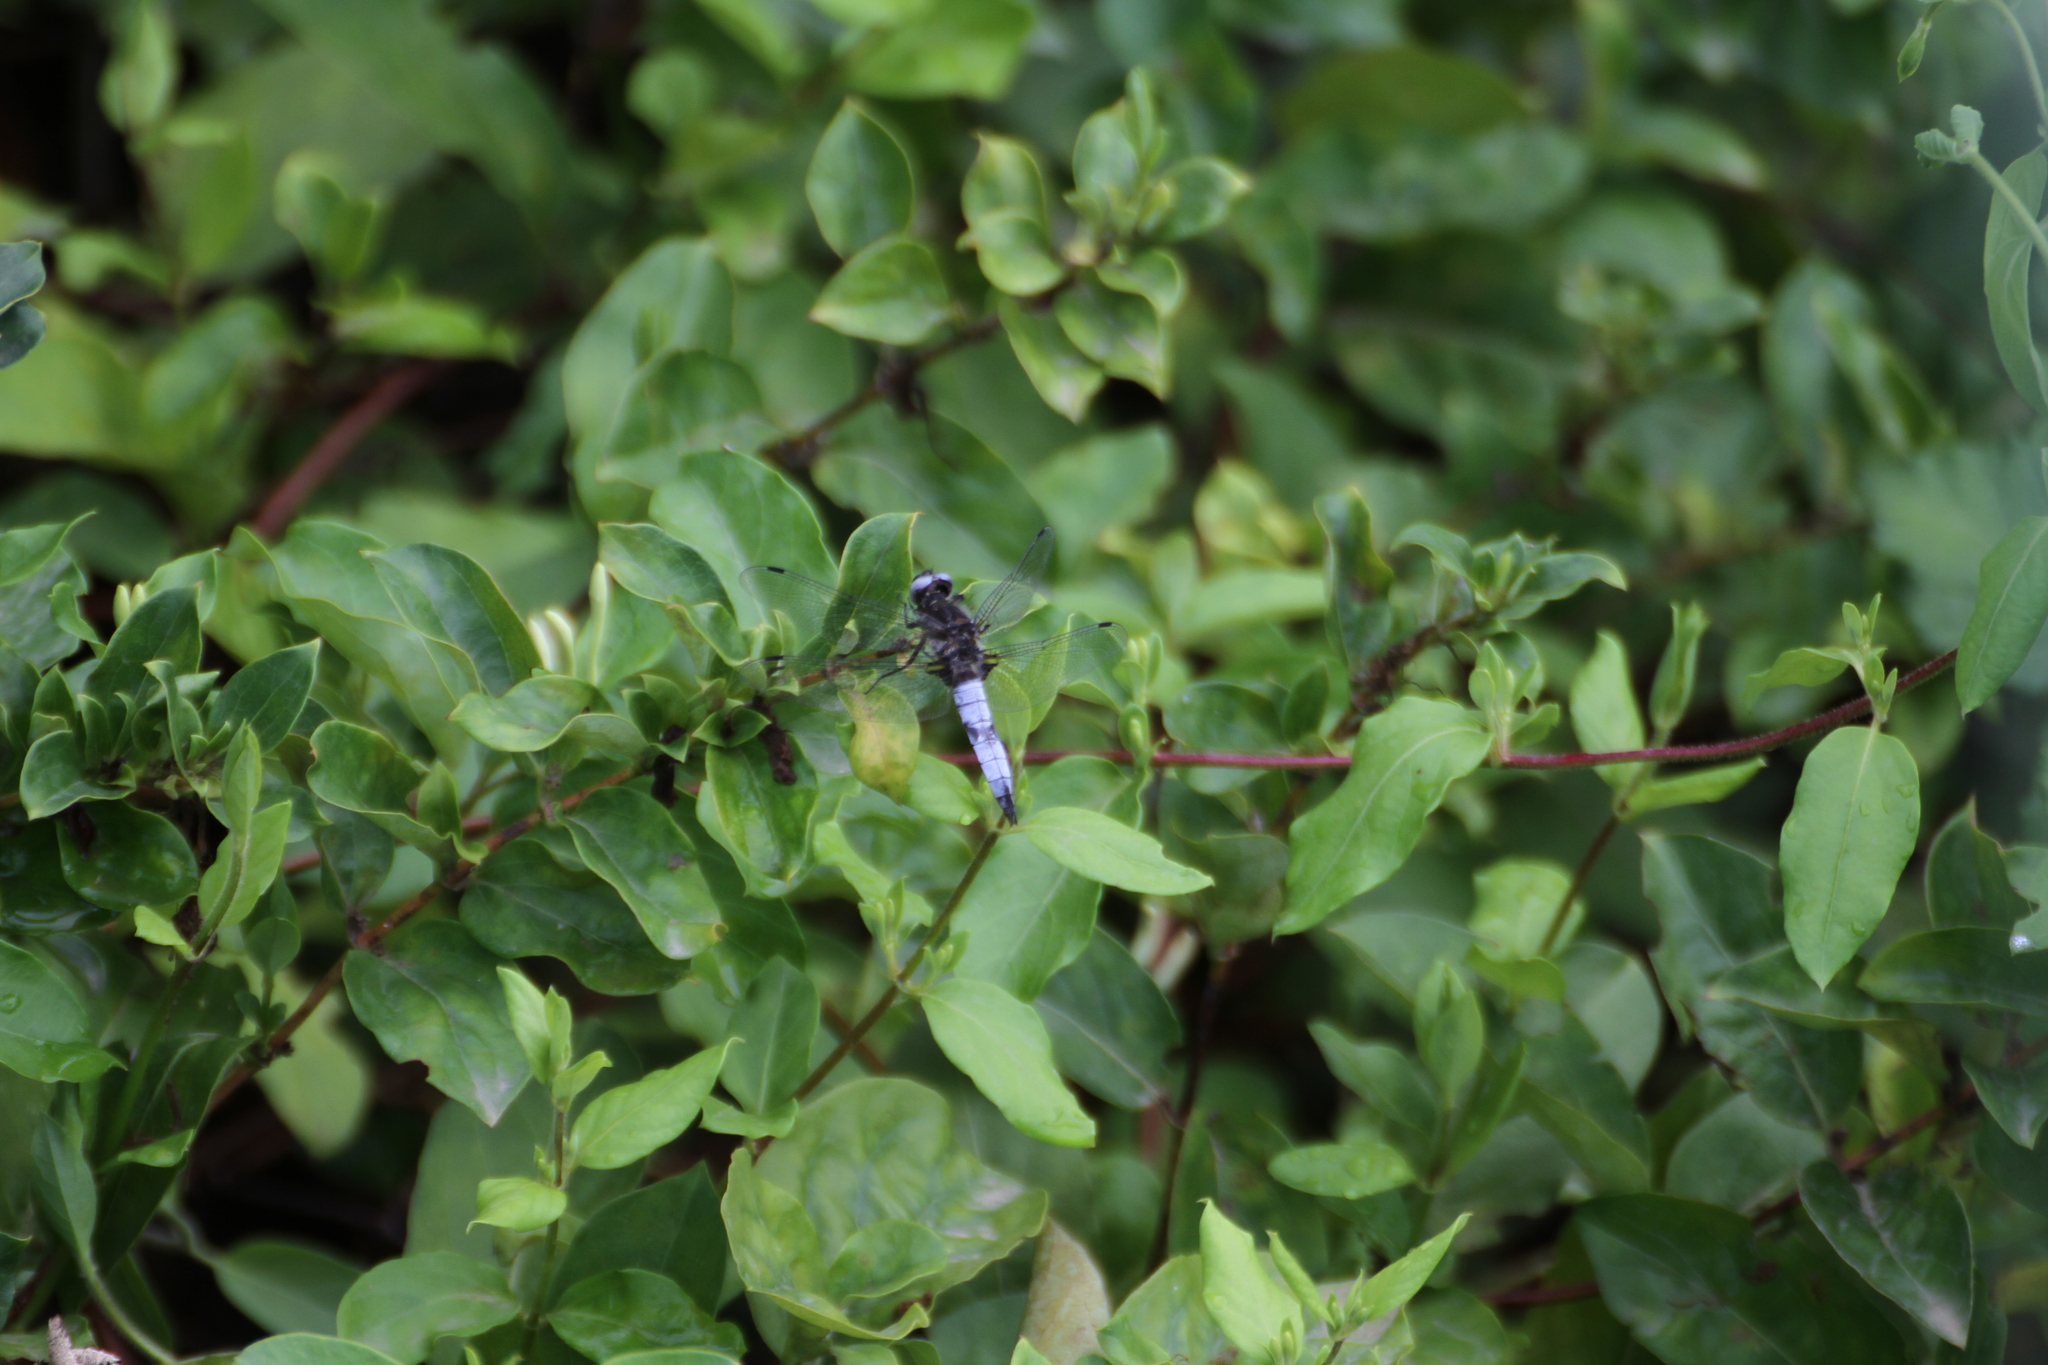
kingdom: Animalia
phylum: Arthropoda
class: Insecta
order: Odonata
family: Libellulidae
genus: Libellula
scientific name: Libellula fulva
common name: Blue chaser
